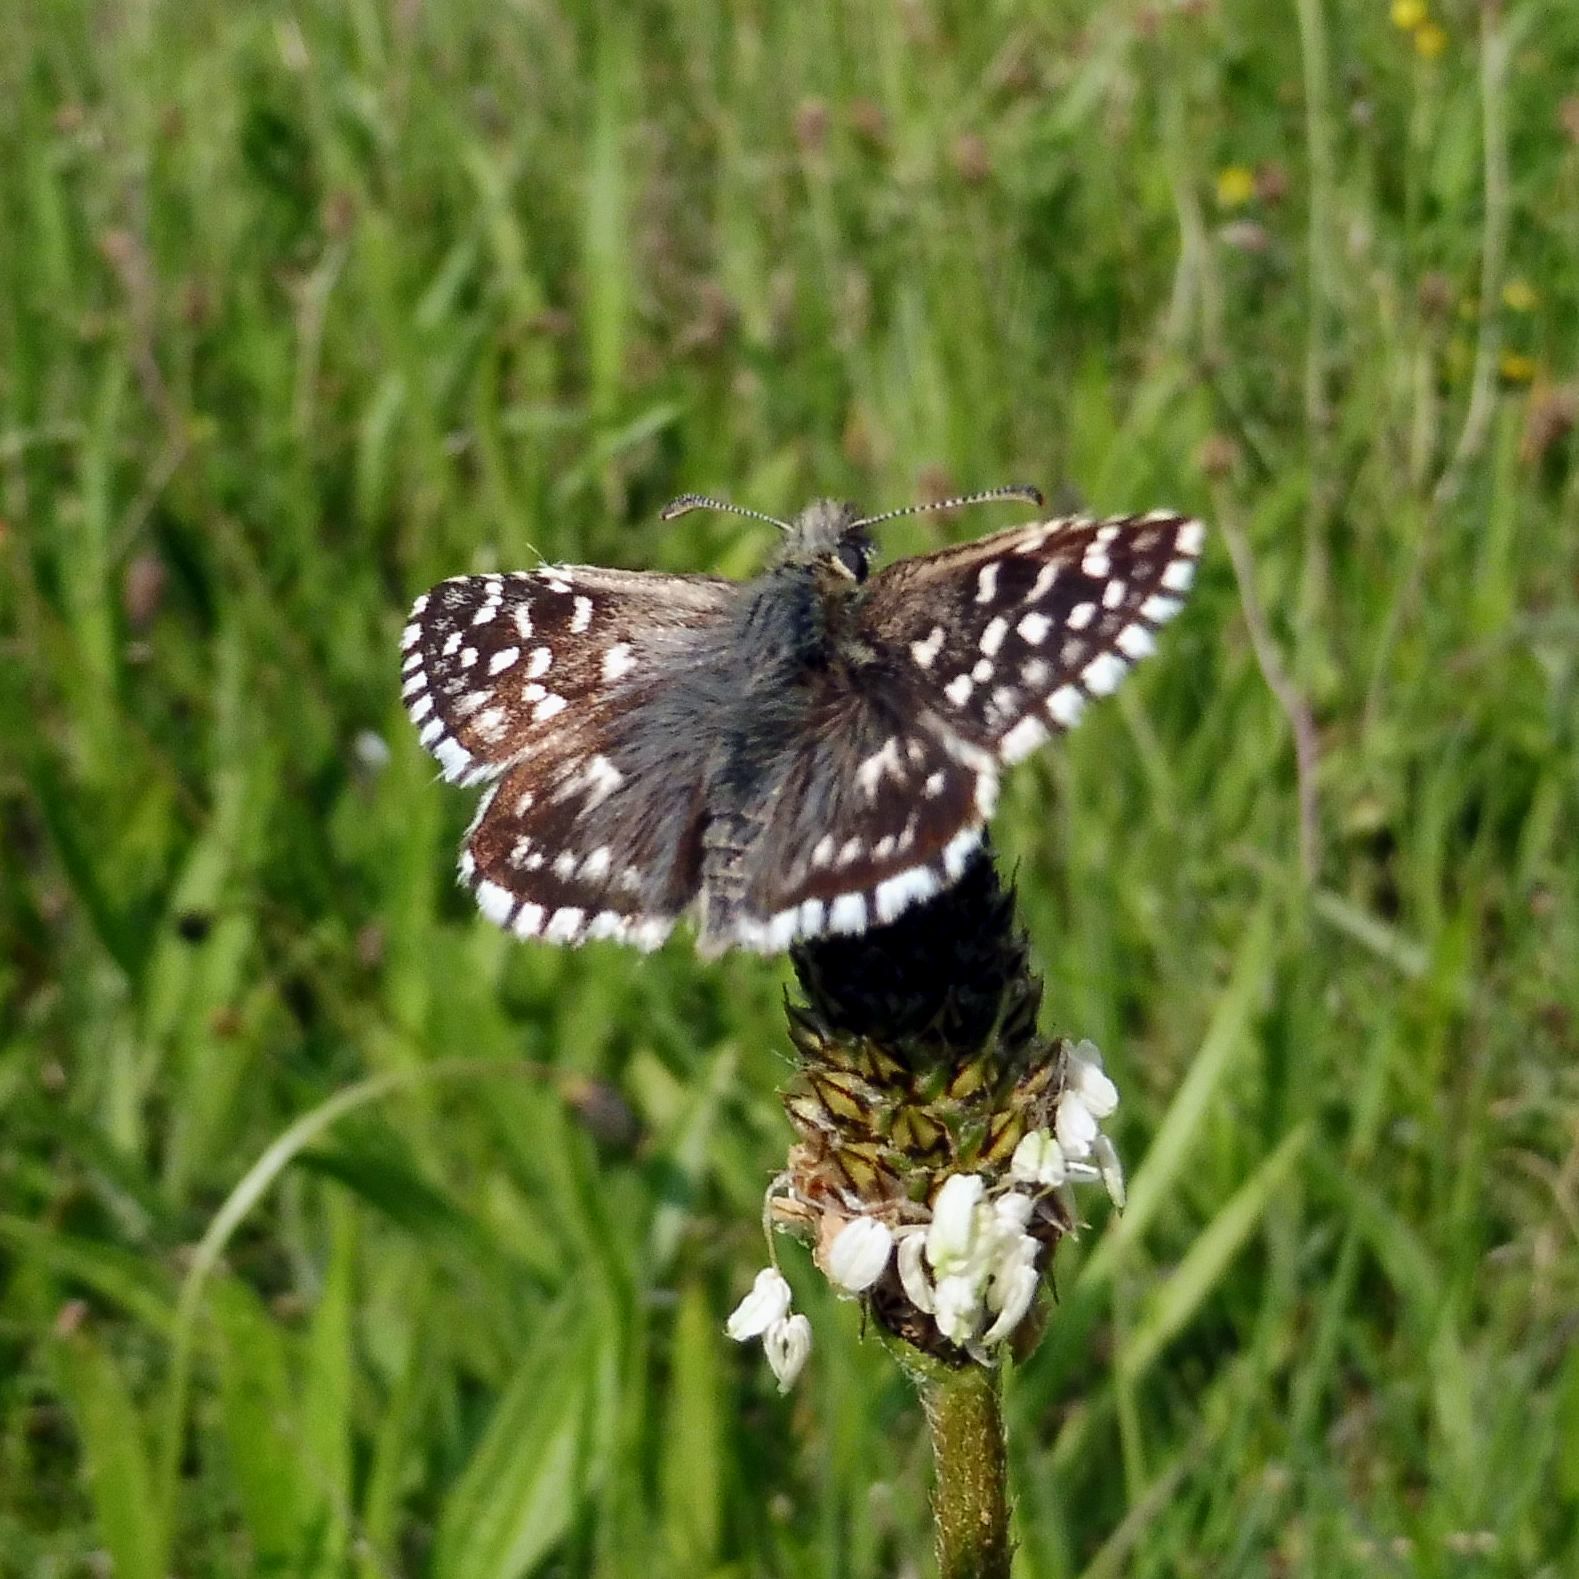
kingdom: Animalia
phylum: Arthropoda
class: Insecta
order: Lepidoptera
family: Hesperiidae
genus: Pyrgus
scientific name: Pyrgus malvae
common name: Grizzled skipper
